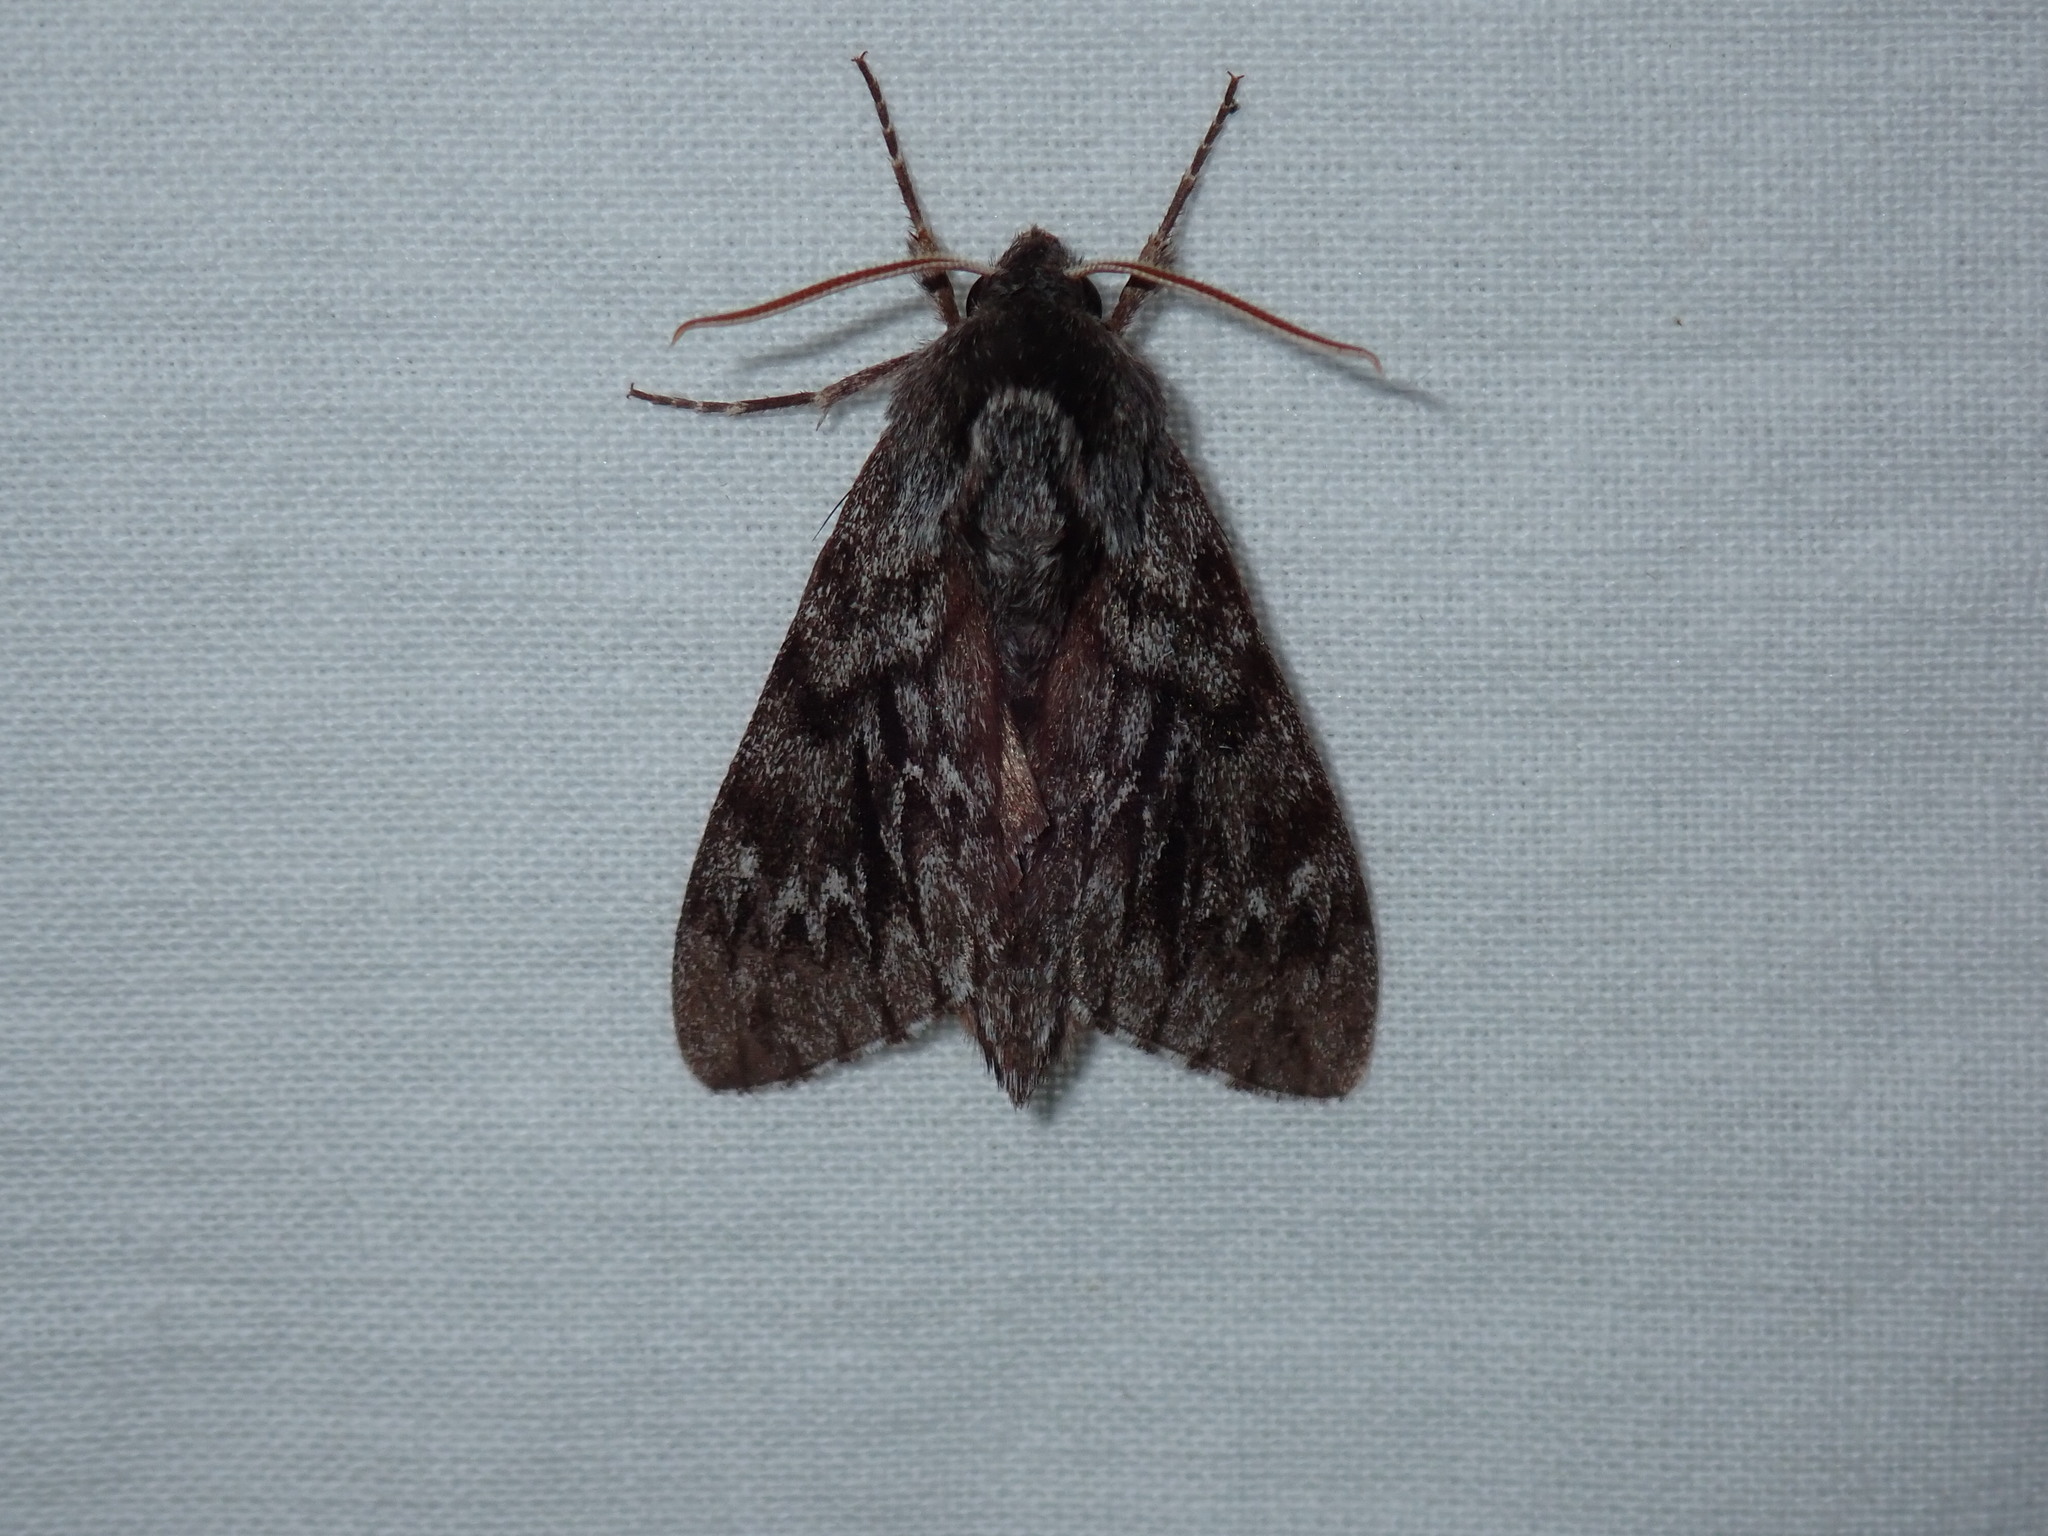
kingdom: Animalia
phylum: Arthropoda
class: Insecta
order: Lepidoptera
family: Sphingidae
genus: Lapara
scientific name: Lapara bombycoides
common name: Northern pine sphinx
